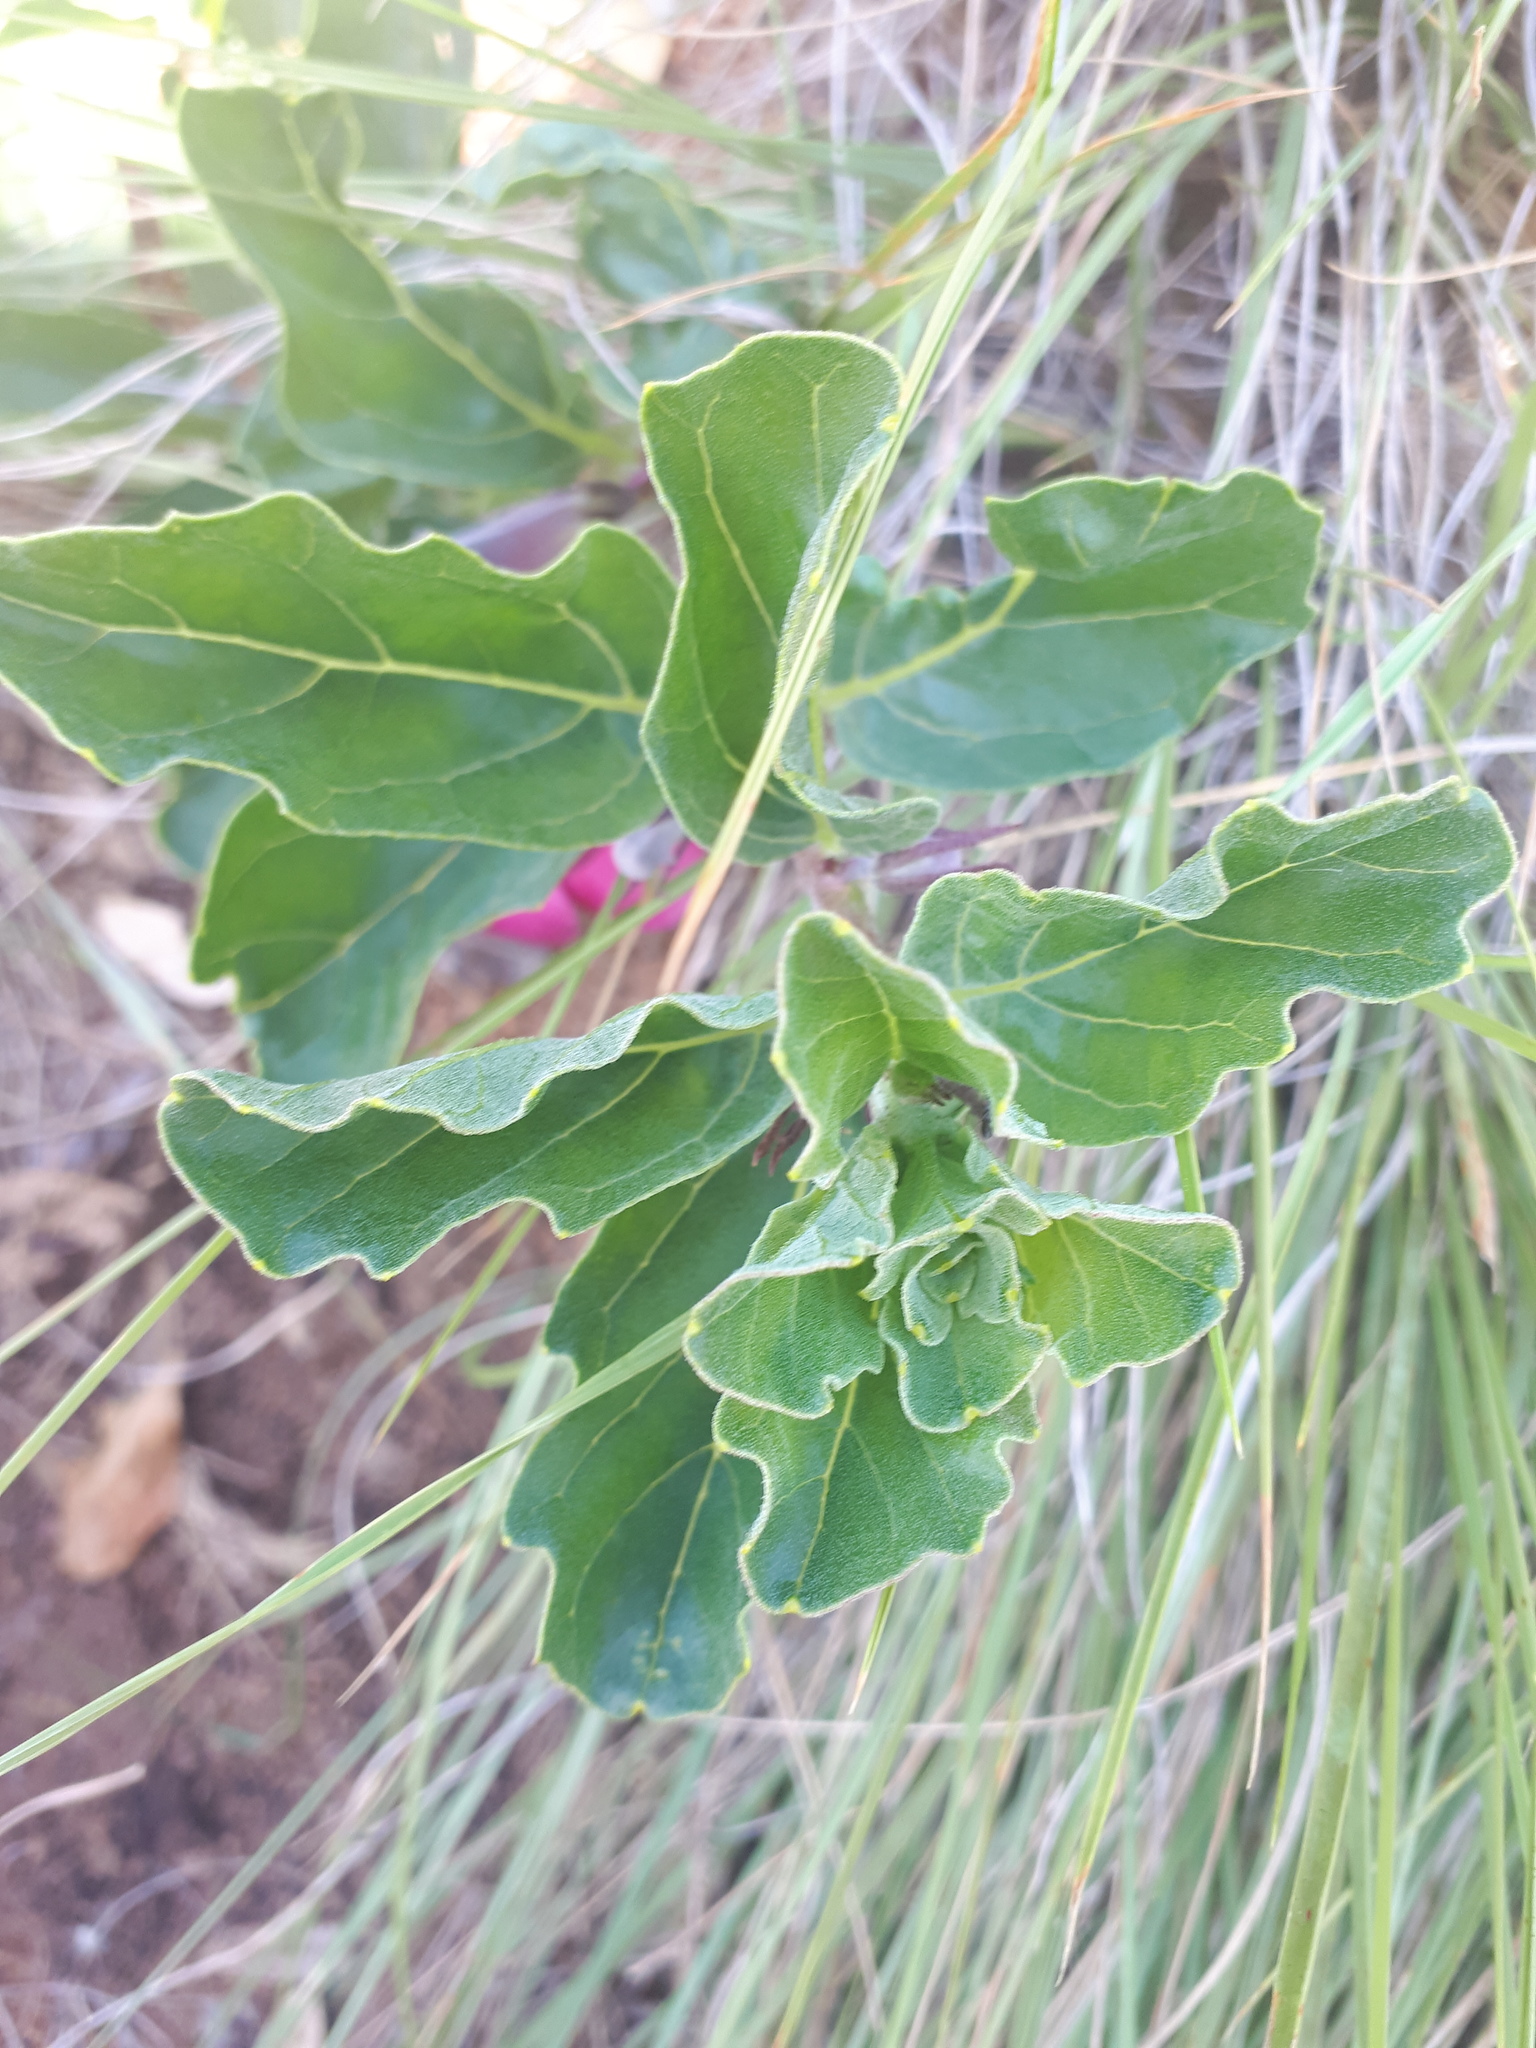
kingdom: Plantae
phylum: Tracheophyta
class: Magnoliopsida
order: Lamiales
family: Pedaliaceae
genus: Harpagophytum
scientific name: Harpagophytum zeyheri
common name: Grappleplant
